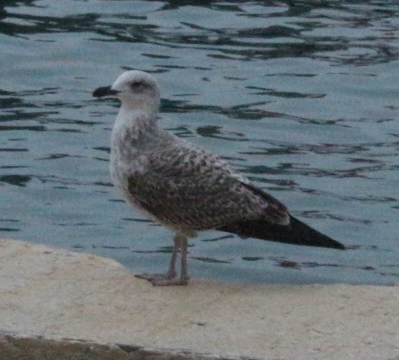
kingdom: Animalia
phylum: Chordata
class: Aves
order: Charadriiformes
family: Laridae
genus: Larus
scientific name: Larus michahellis
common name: Yellow-legged gull
